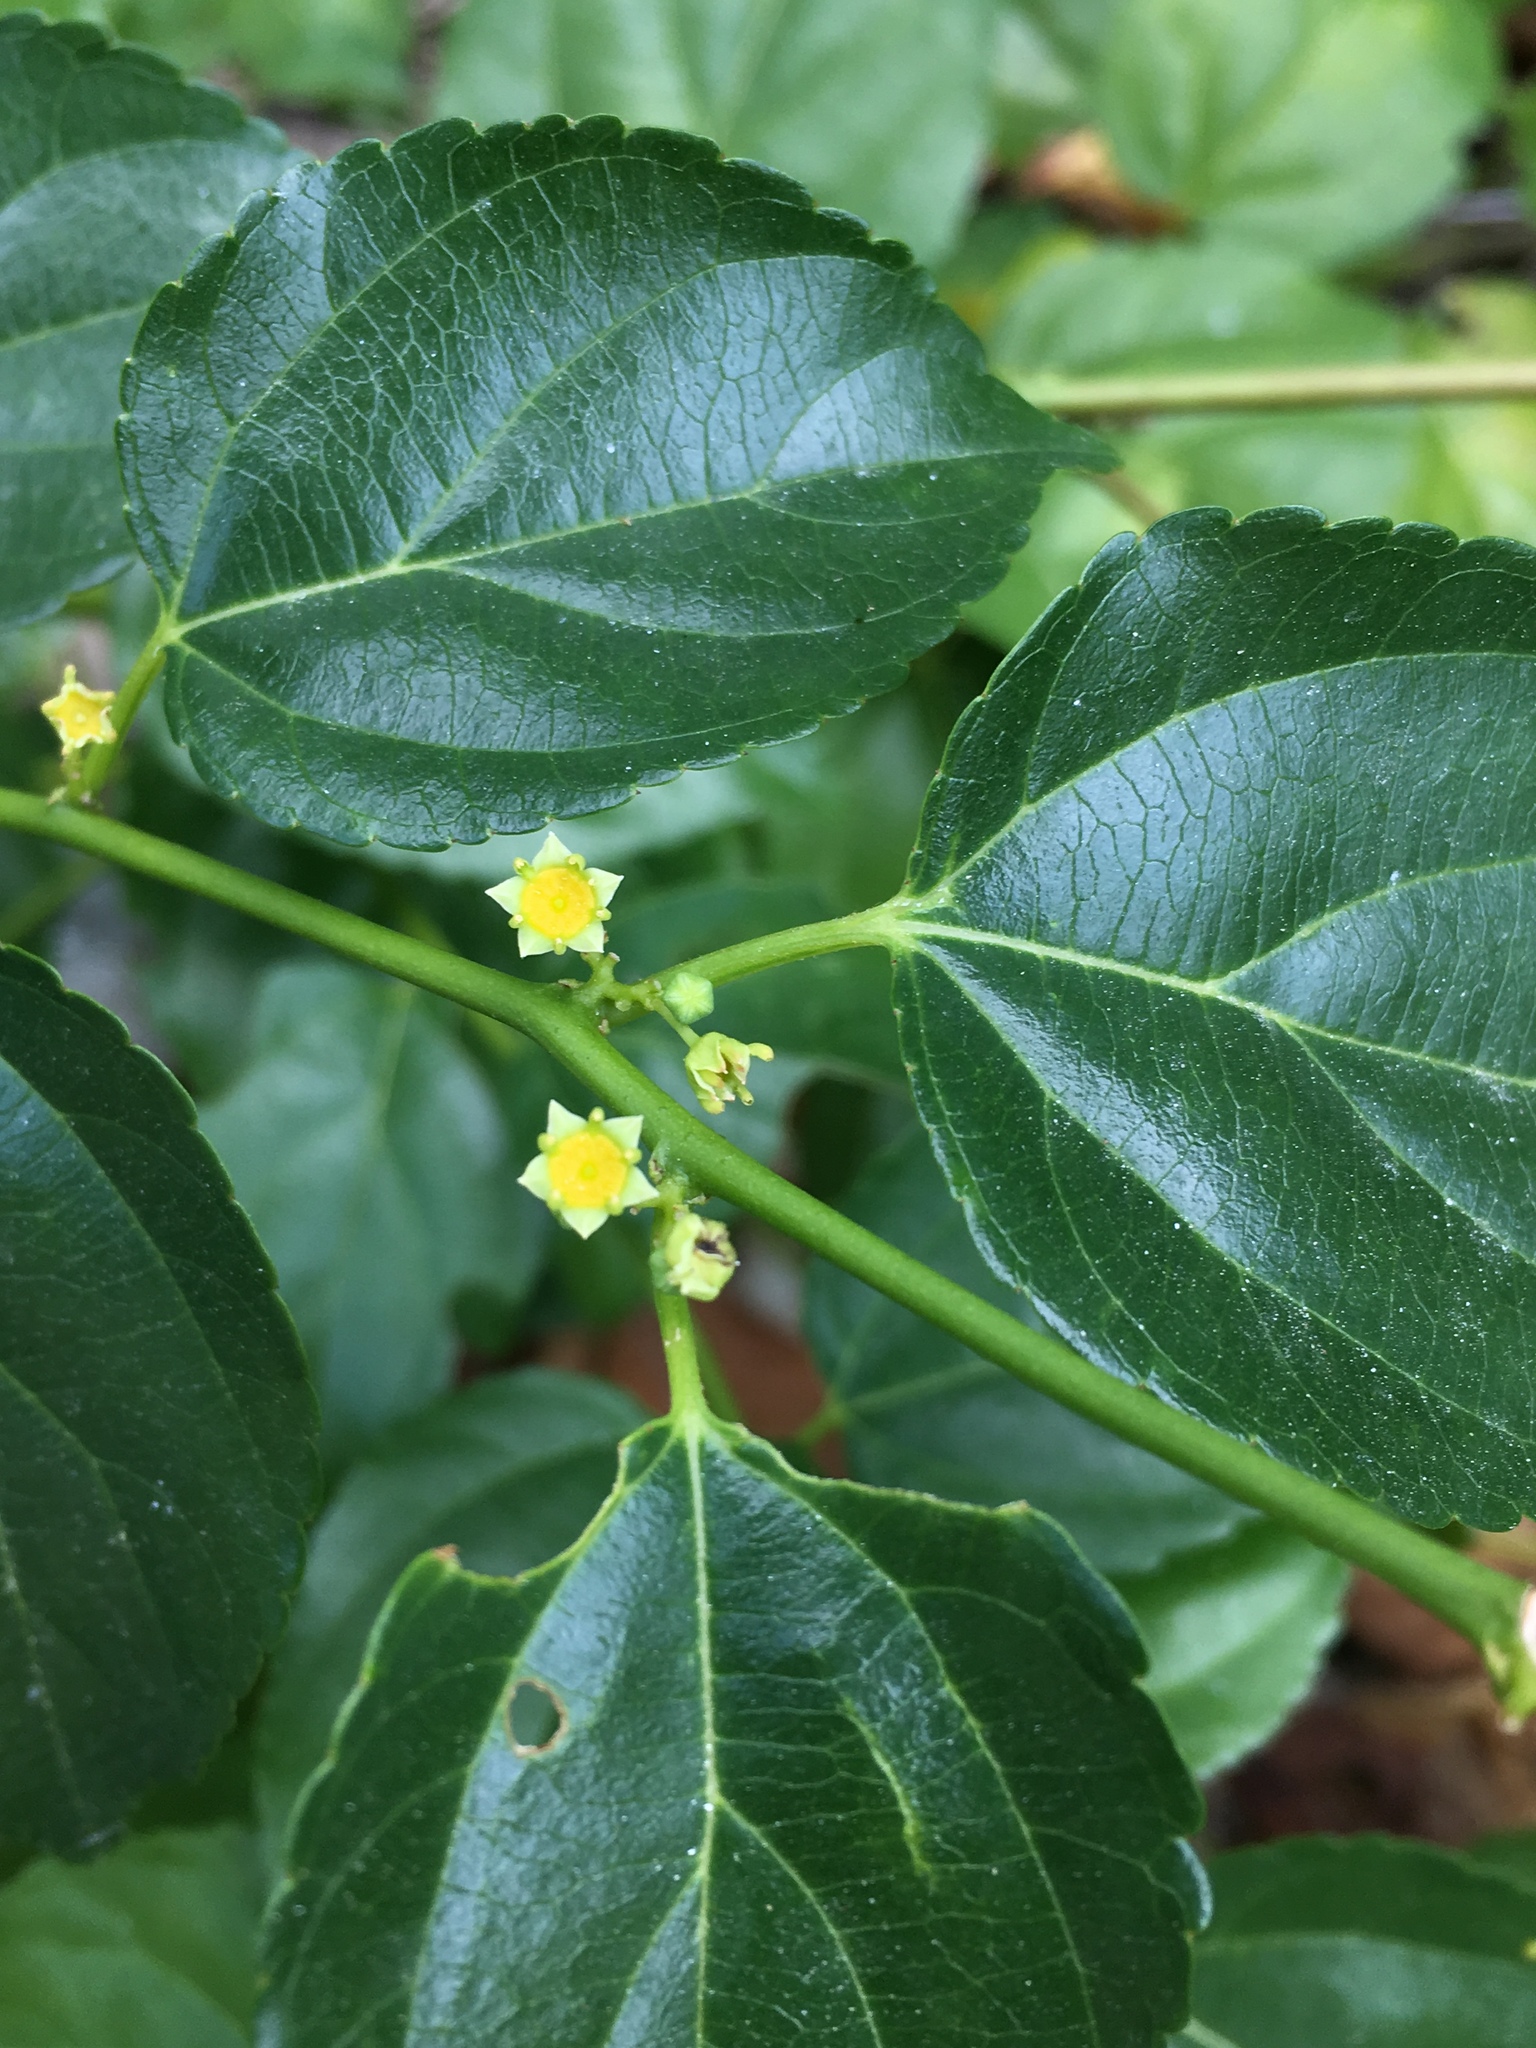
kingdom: Plantae
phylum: Tracheophyta
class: Magnoliopsida
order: Rosales
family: Rhamnaceae
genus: Colubrina
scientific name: Colubrina asiatica
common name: Asian nakedwood
